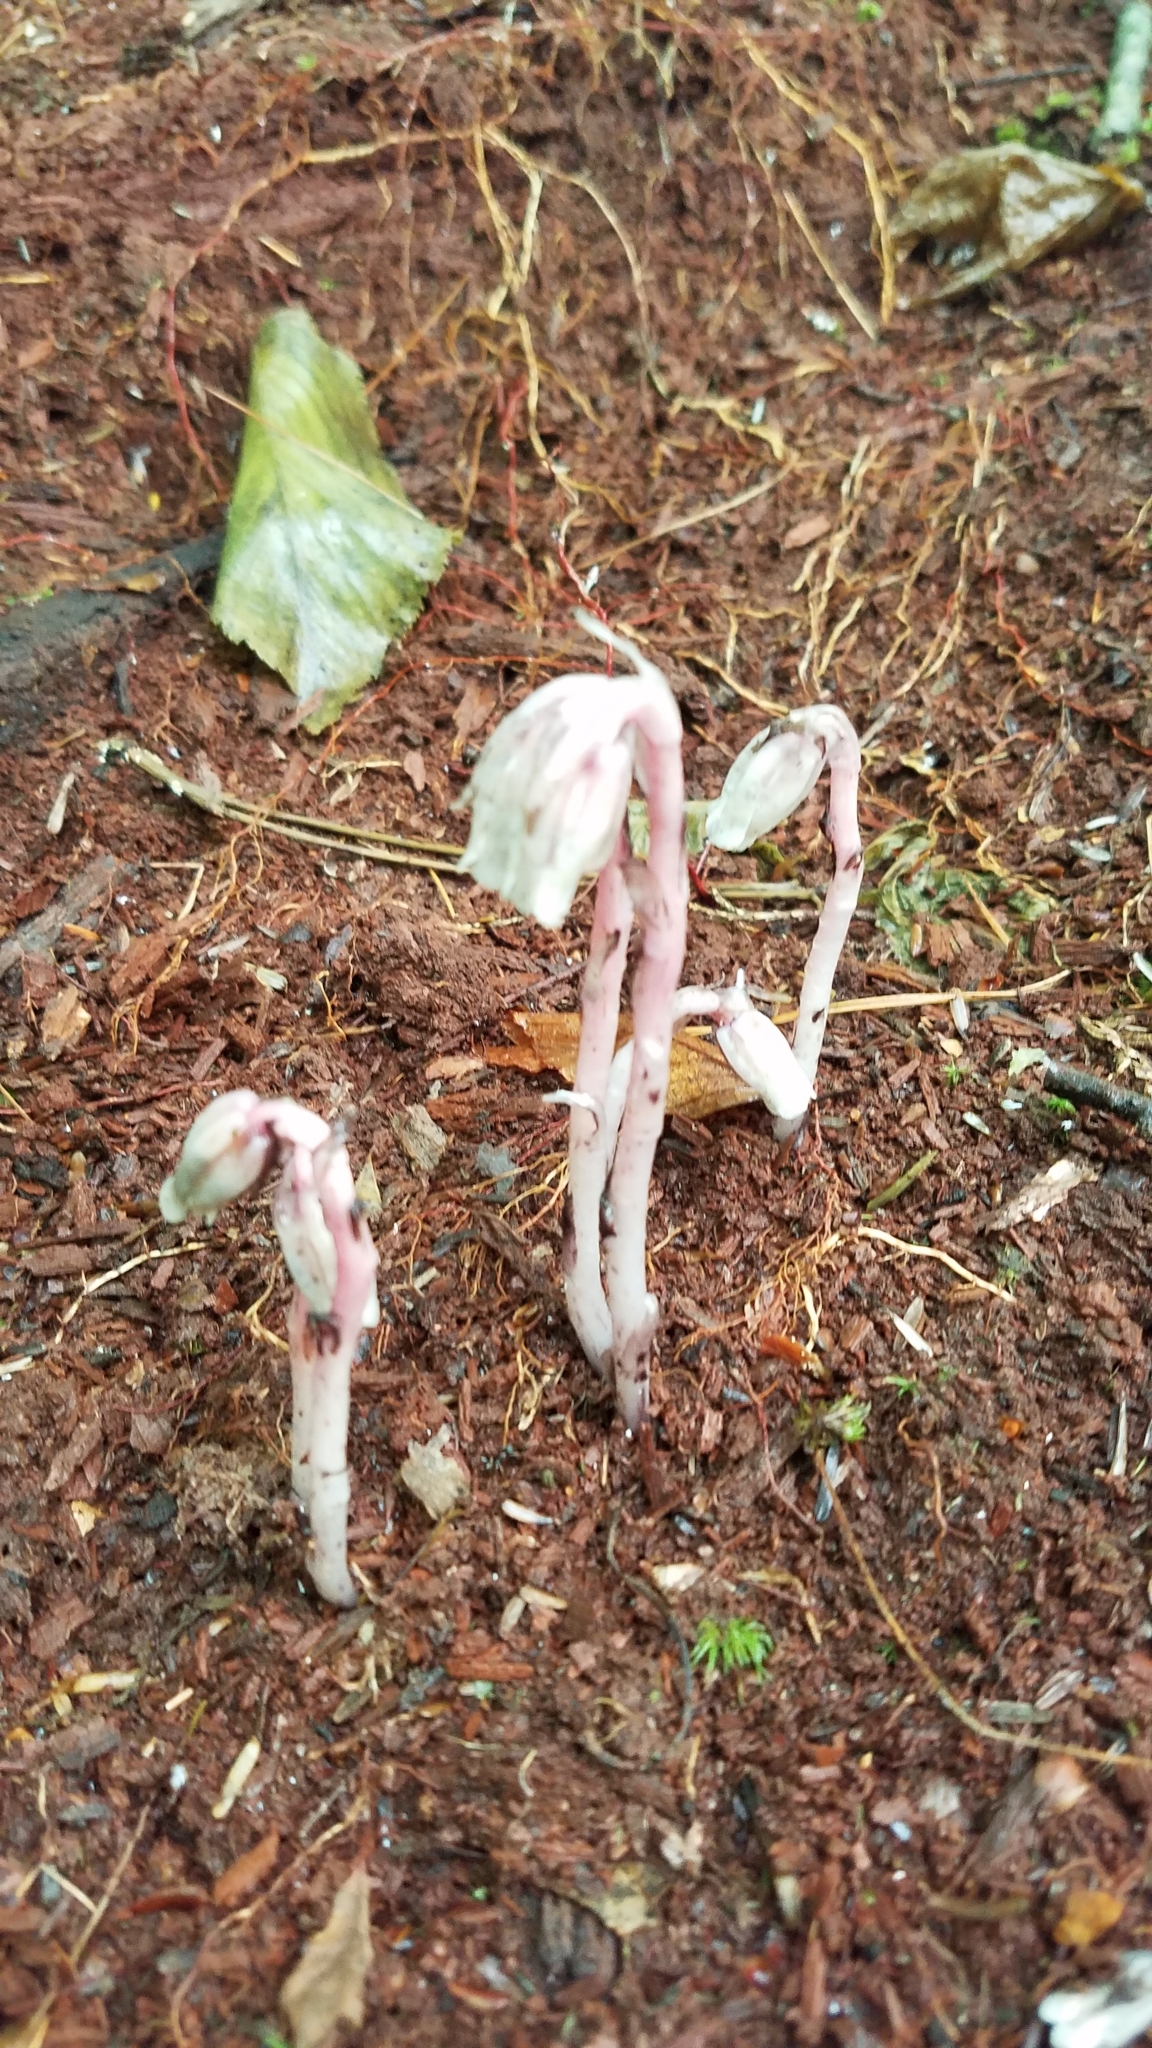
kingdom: Plantae
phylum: Tracheophyta
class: Magnoliopsida
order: Ericales
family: Ericaceae
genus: Monotropa
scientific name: Monotropa uniflora
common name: Convulsion root
